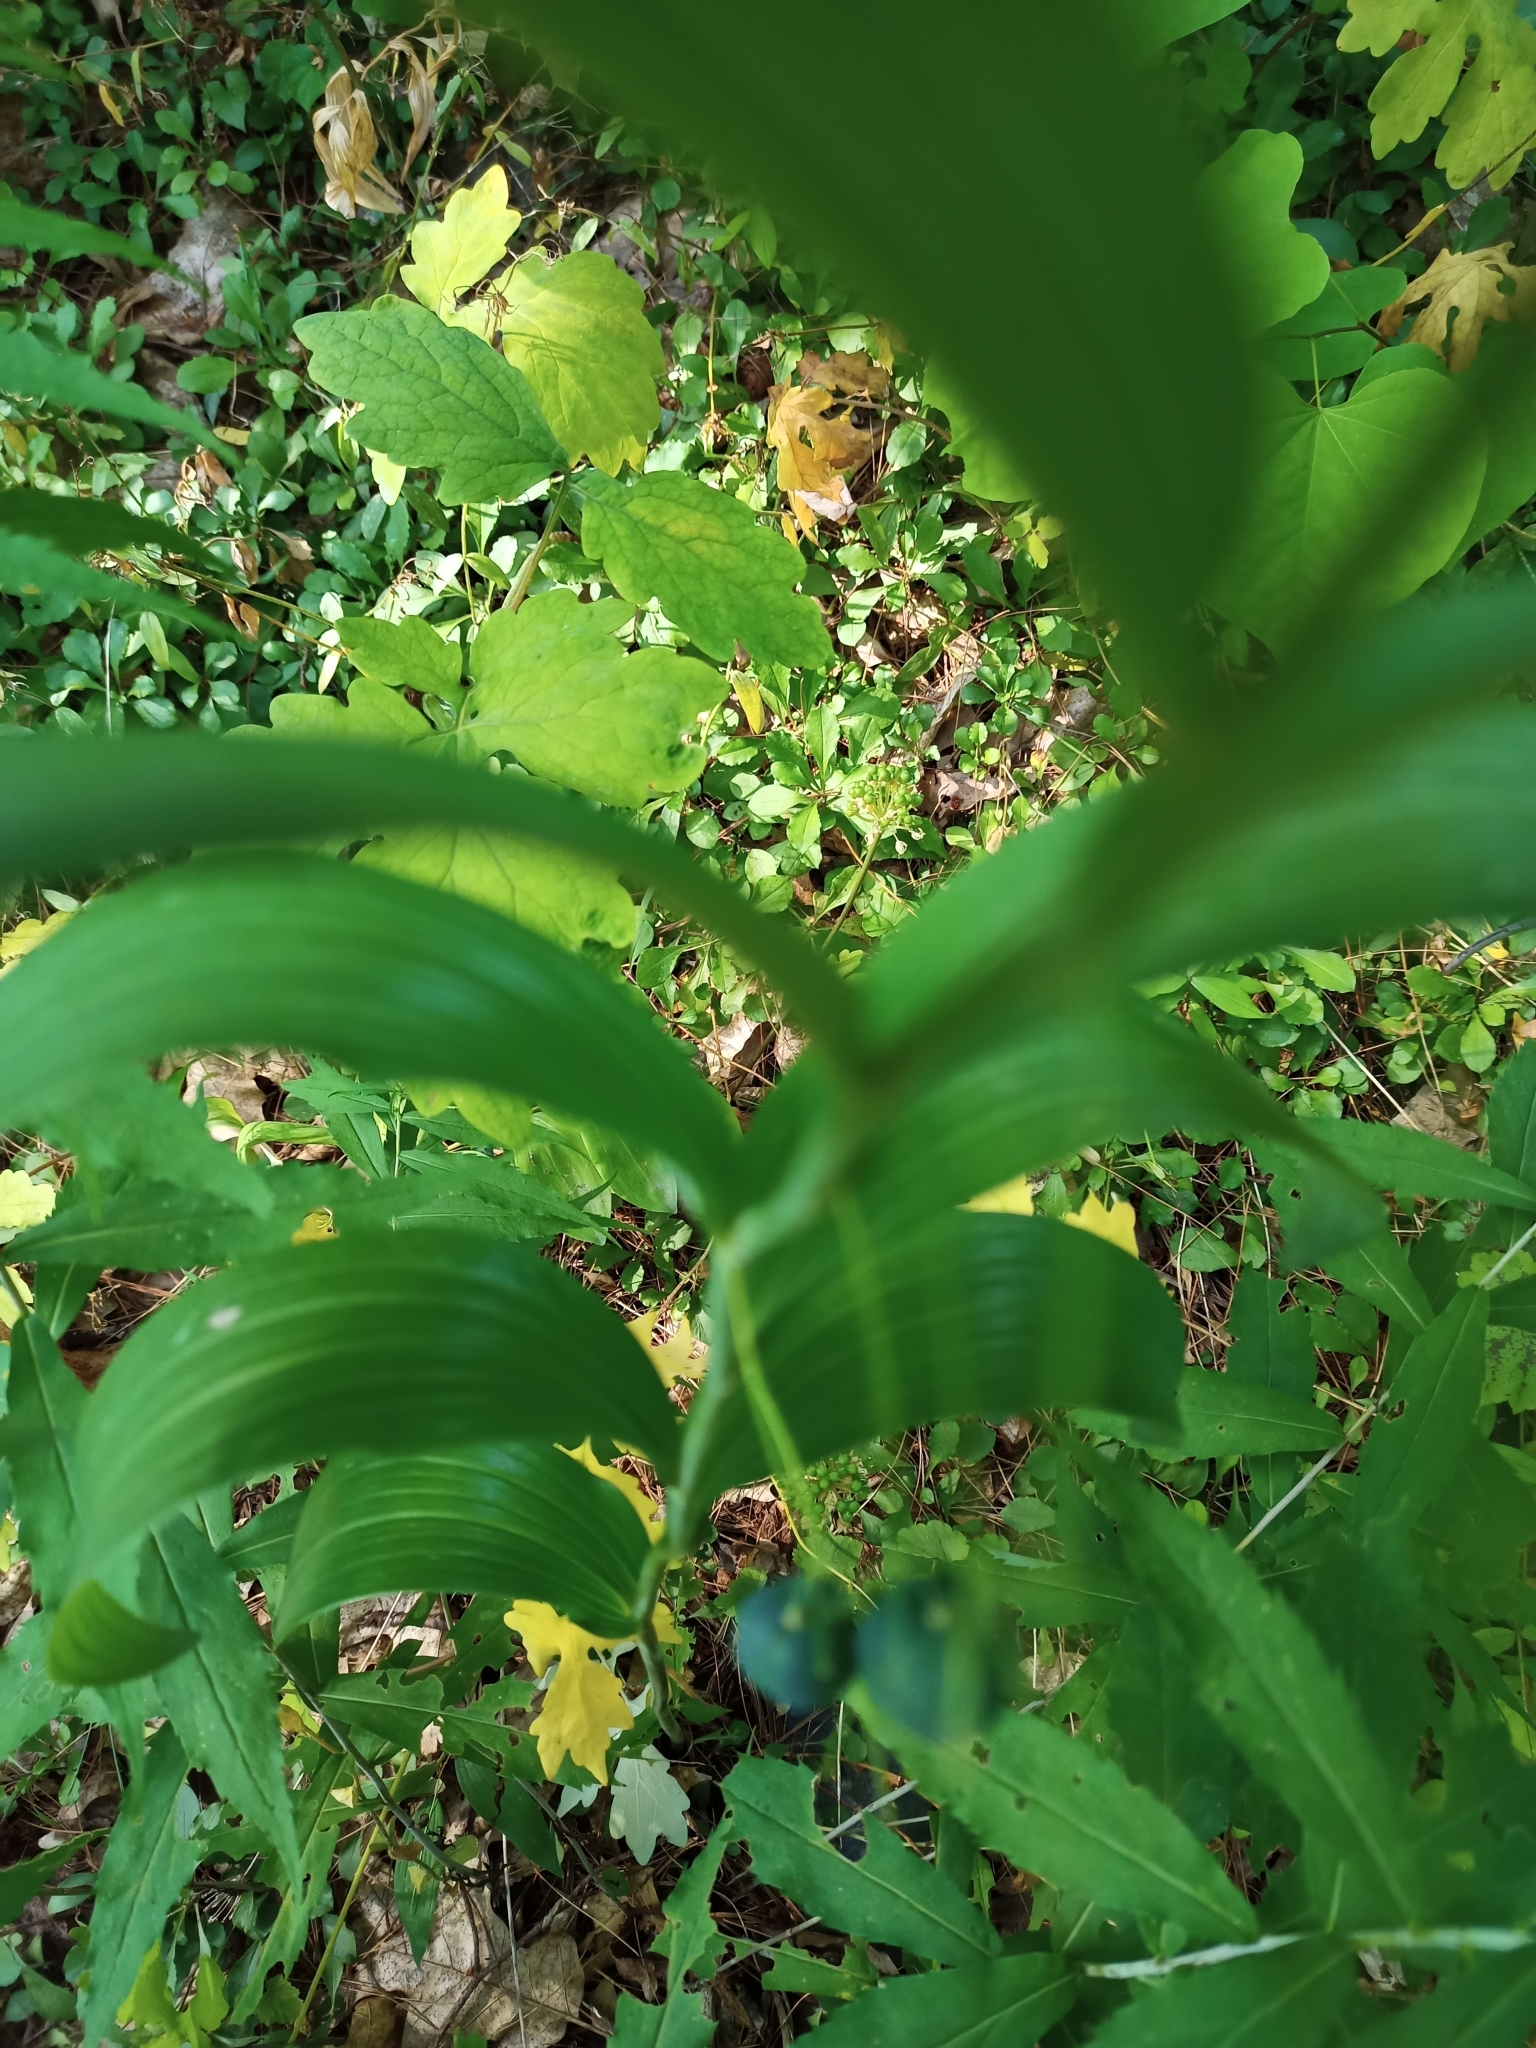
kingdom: Plantae
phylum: Tracheophyta
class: Liliopsida
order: Asparagales
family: Asparagaceae
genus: Polygonatum
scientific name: Polygonatum biflorum
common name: American solomon's-seal
